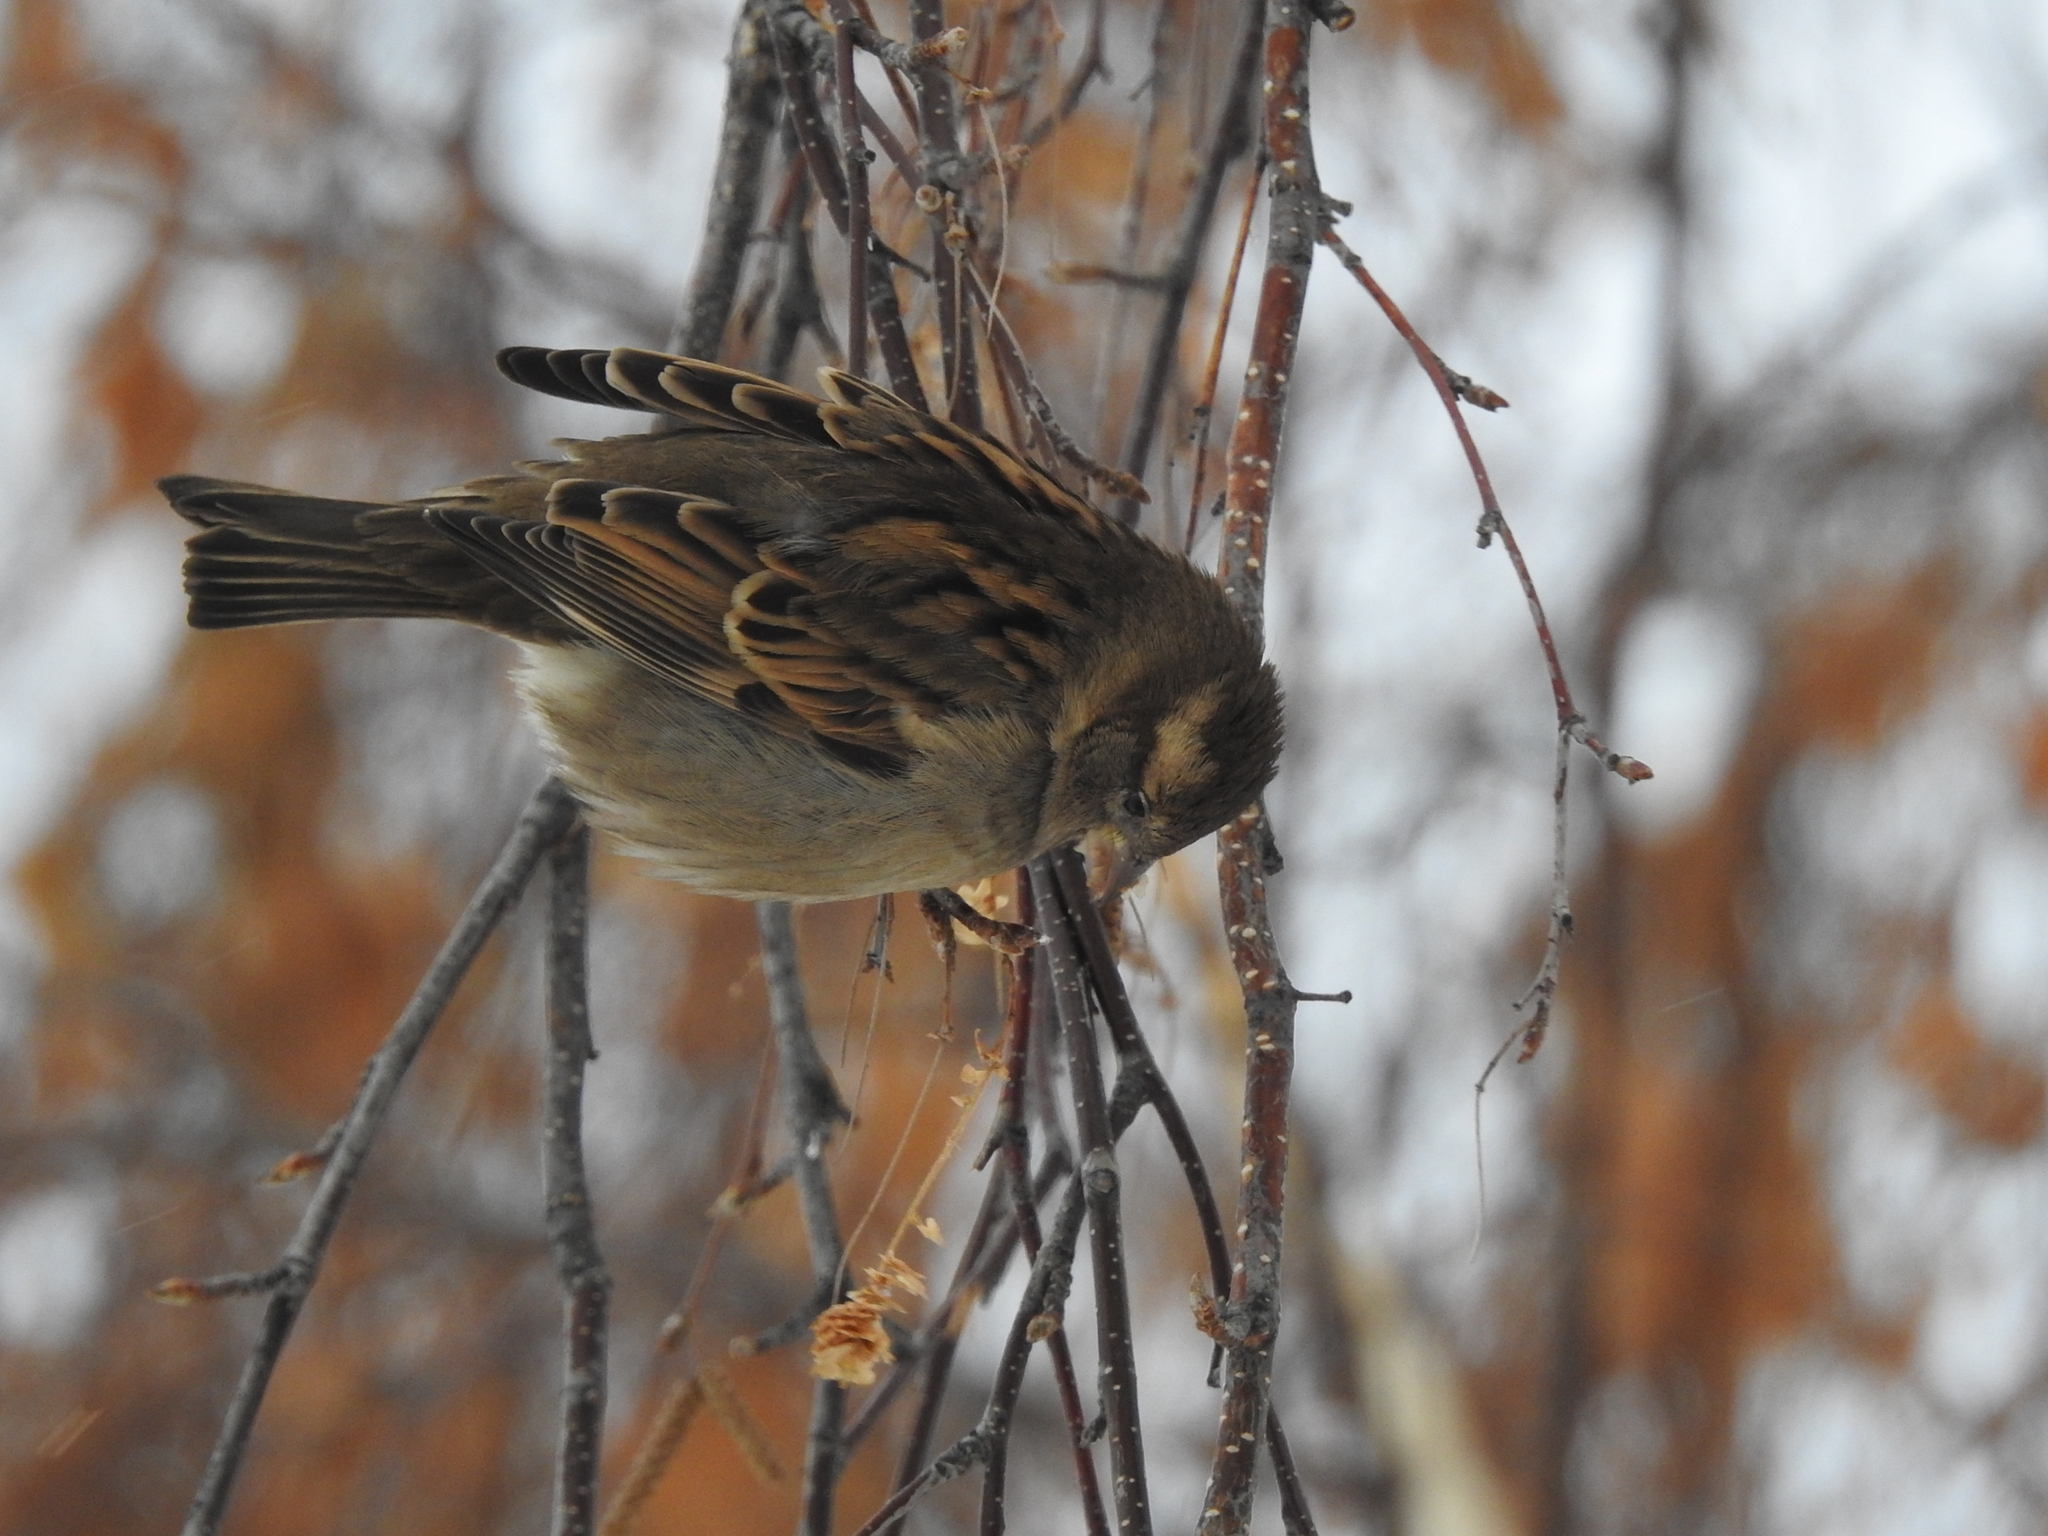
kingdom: Animalia
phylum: Chordata
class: Aves
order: Passeriformes
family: Passeridae
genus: Passer
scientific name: Passer domesticus
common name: House sparrow
